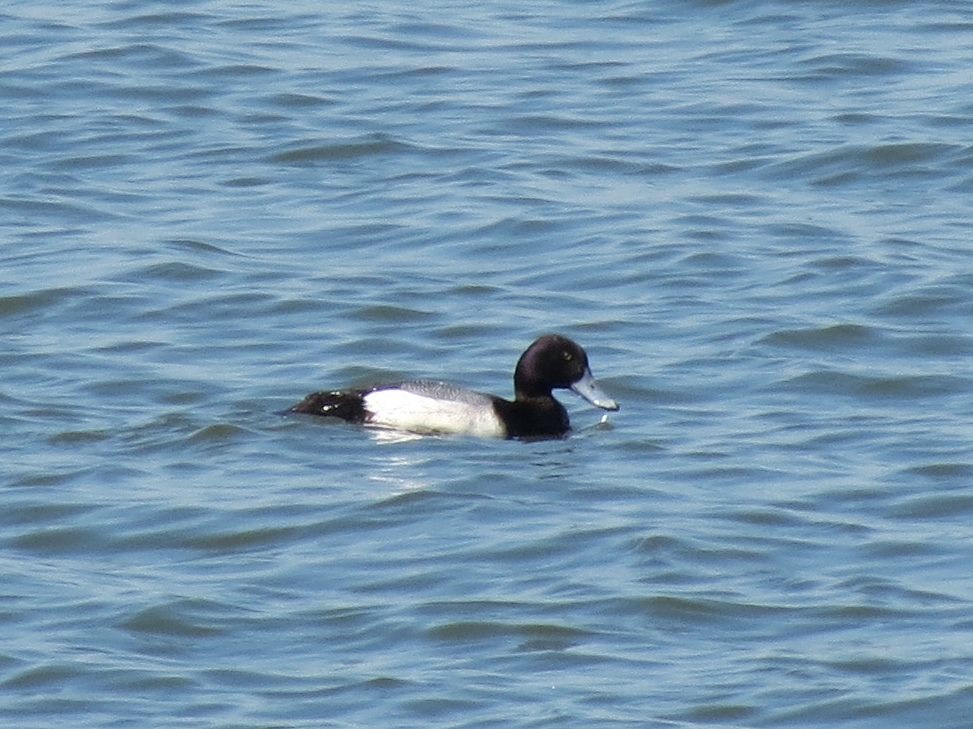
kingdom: Animalia
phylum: Chordata
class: Aves
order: Anseriformes
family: Anatidae
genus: Aythya
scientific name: Aythya marila
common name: Greater scaup
